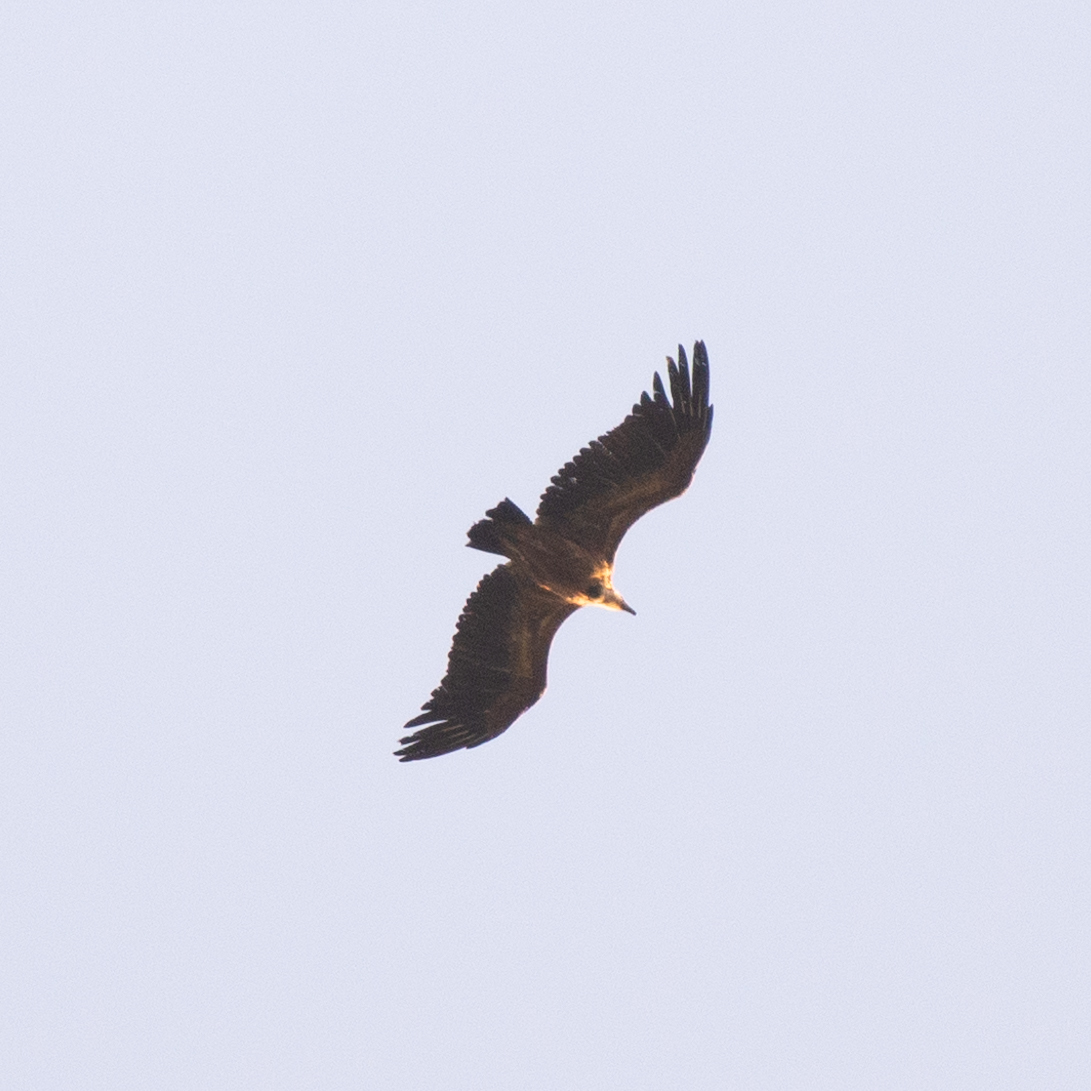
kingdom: Animalia
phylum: Chordata
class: Aves
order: Accipitriformes
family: Accipitridae
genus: Gyps
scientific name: Gyps fulvus
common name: Griffon vulture
